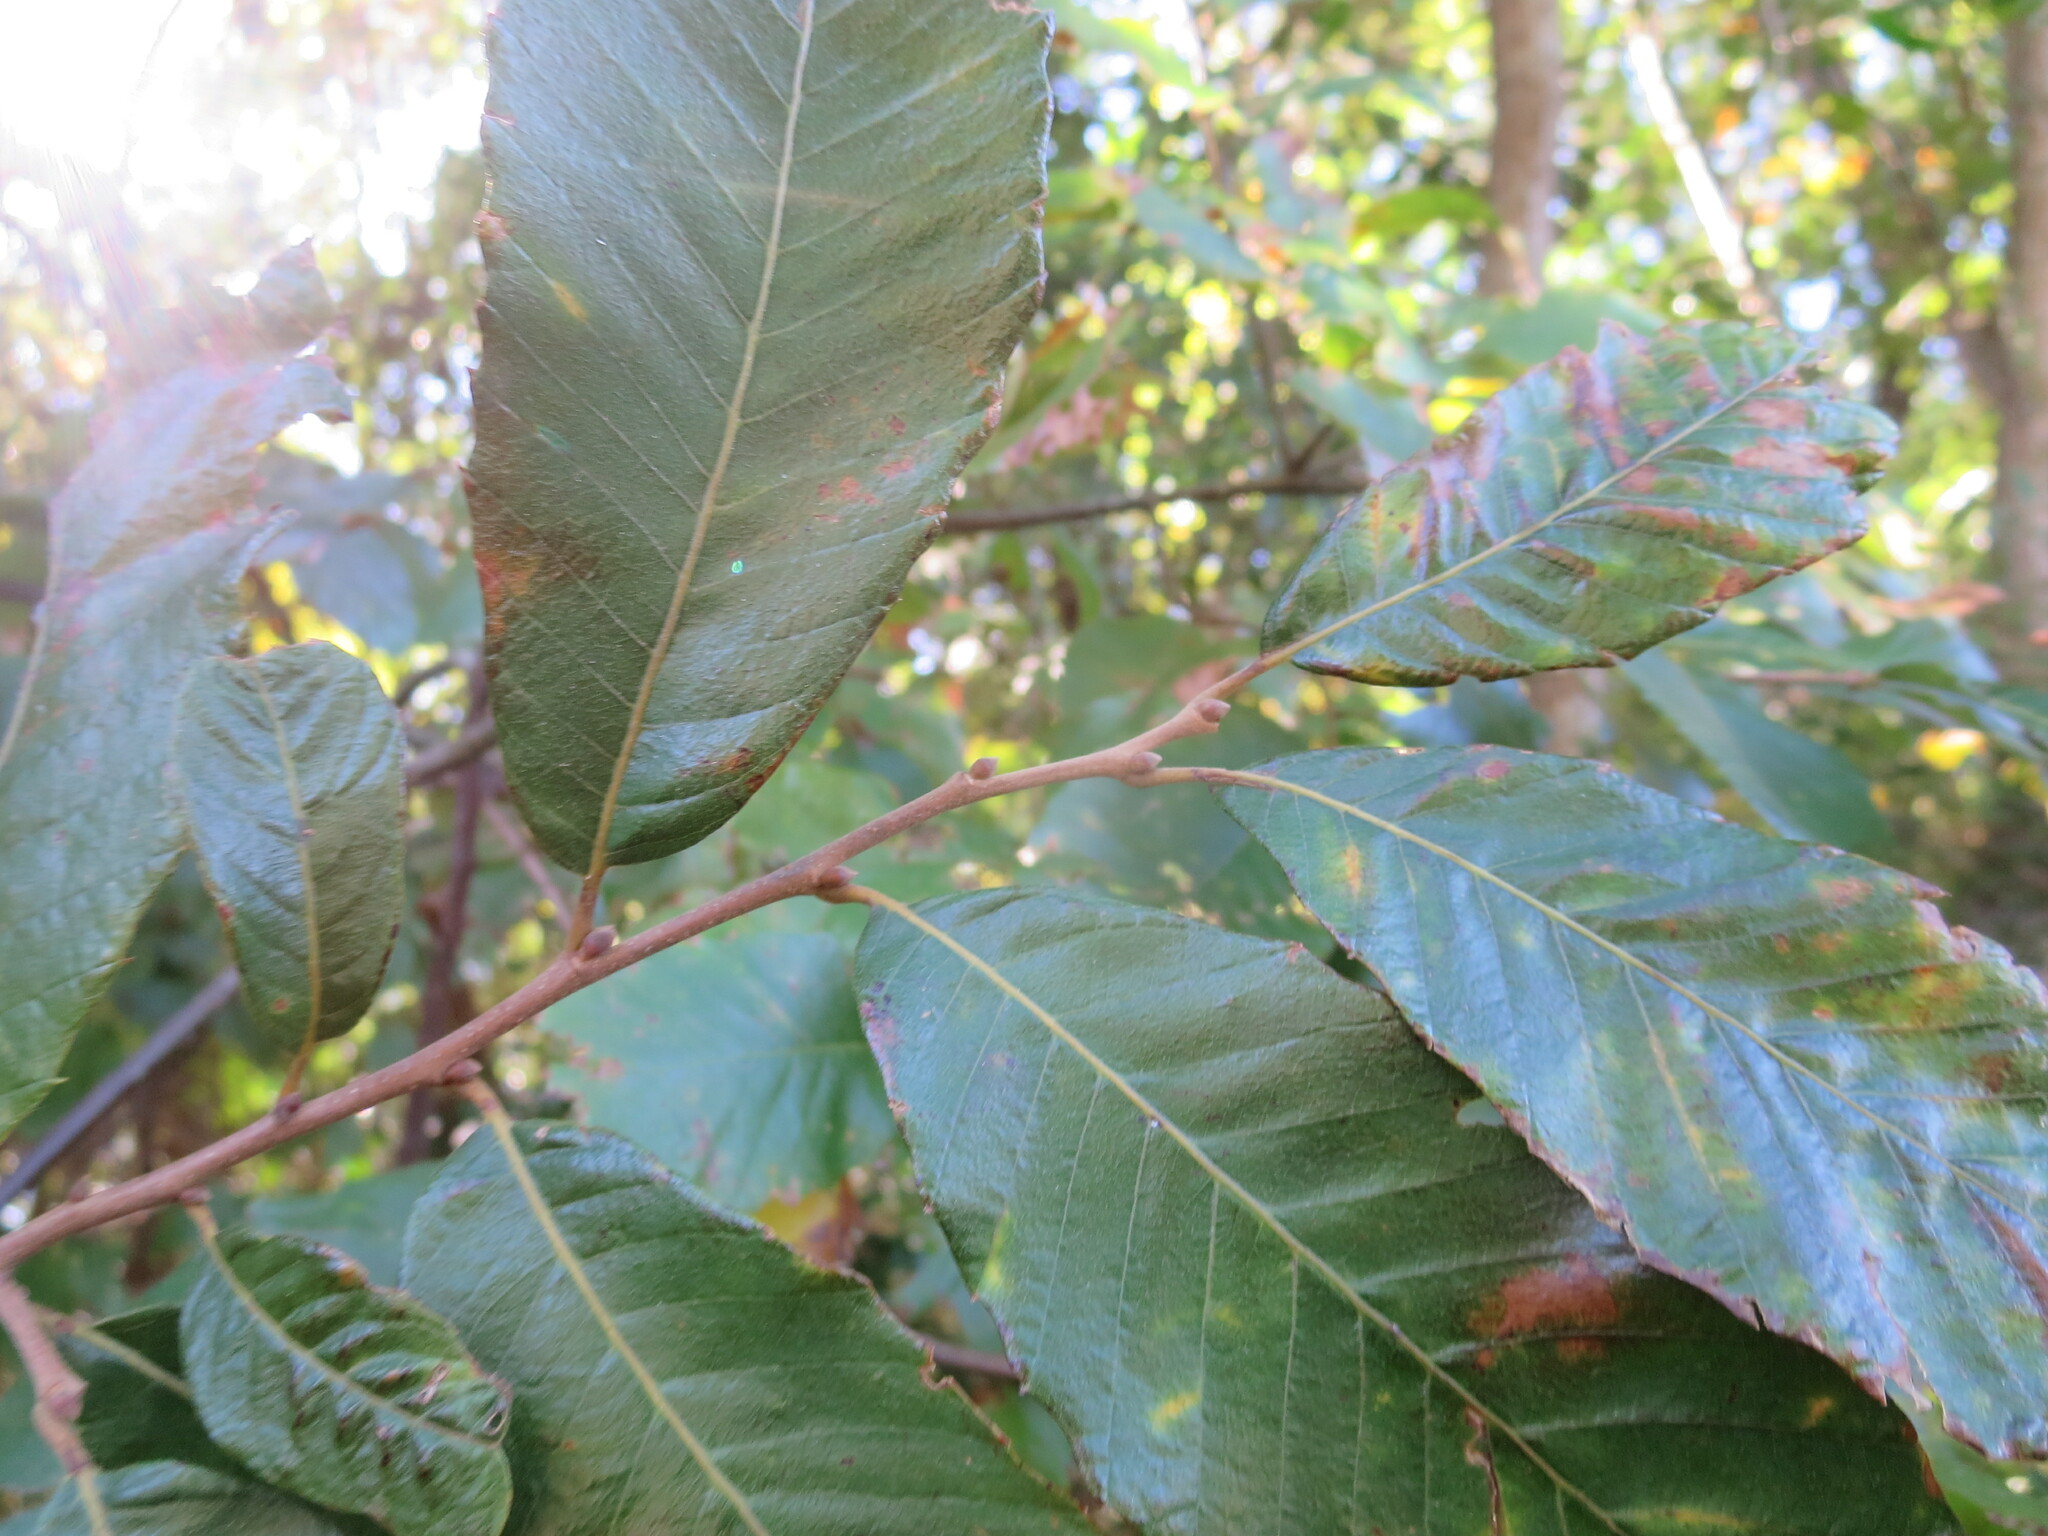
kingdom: Plantae
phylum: Tracheophyta
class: Magnoliopsida
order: Fagales
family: Fagaceae
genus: Castanea
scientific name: Castanea pumila
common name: Chinkapin
